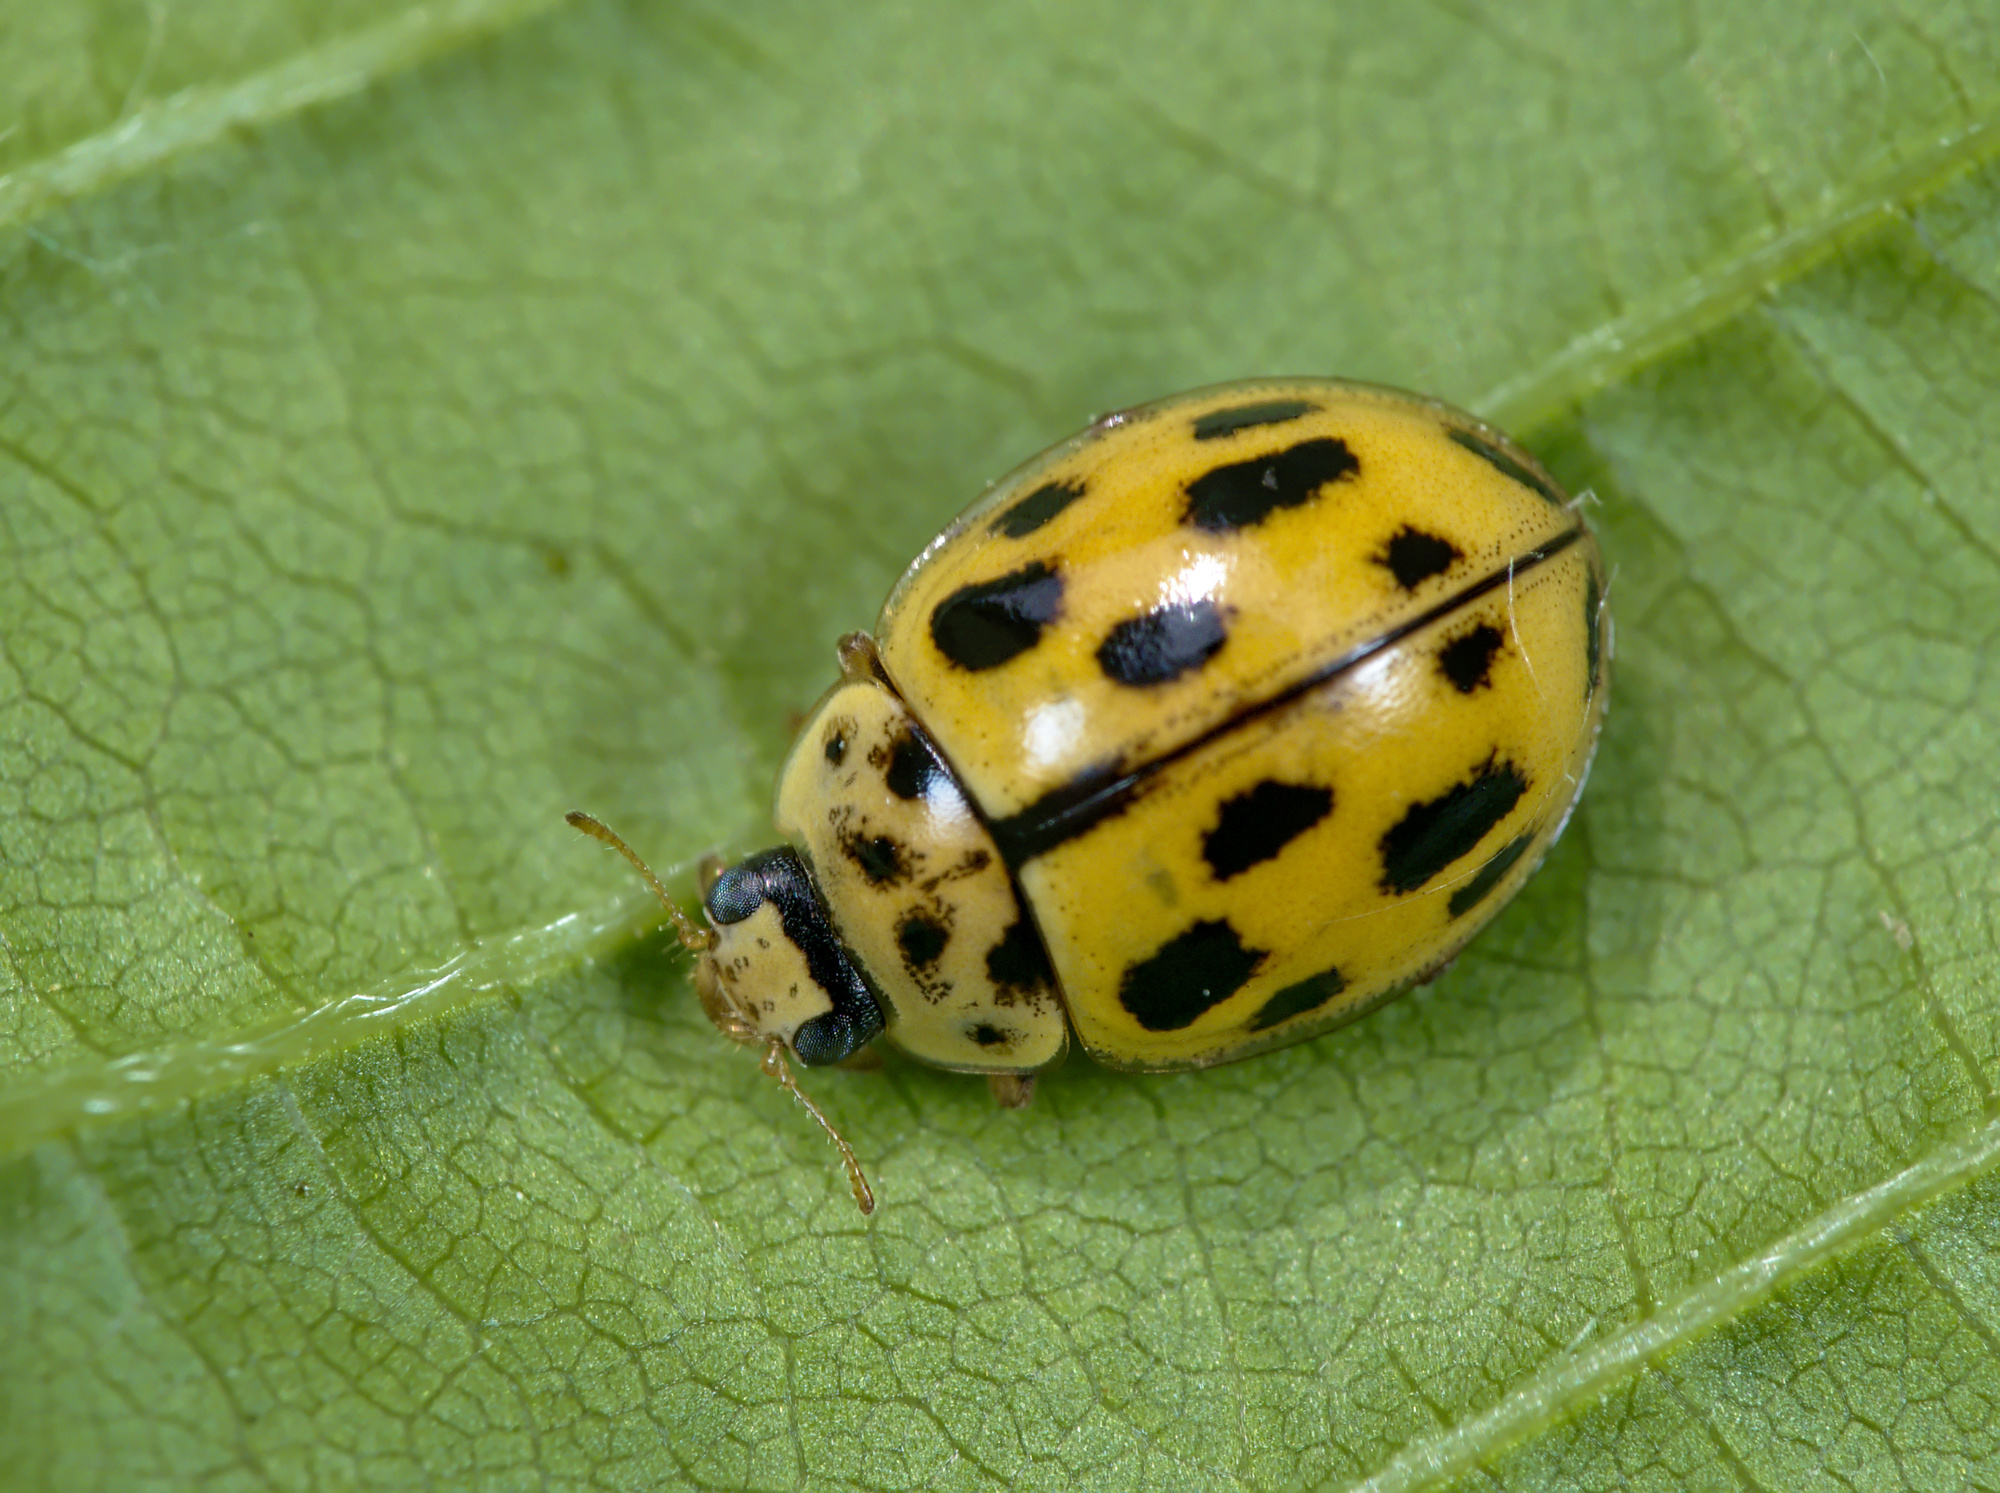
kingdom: Animalia
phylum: Arthropoda
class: Insecta
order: Coleoptera
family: Coccinellidae
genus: Propylaea
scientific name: Propylaea quatuordecimpunctata
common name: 14-spotted ladybird beetle
